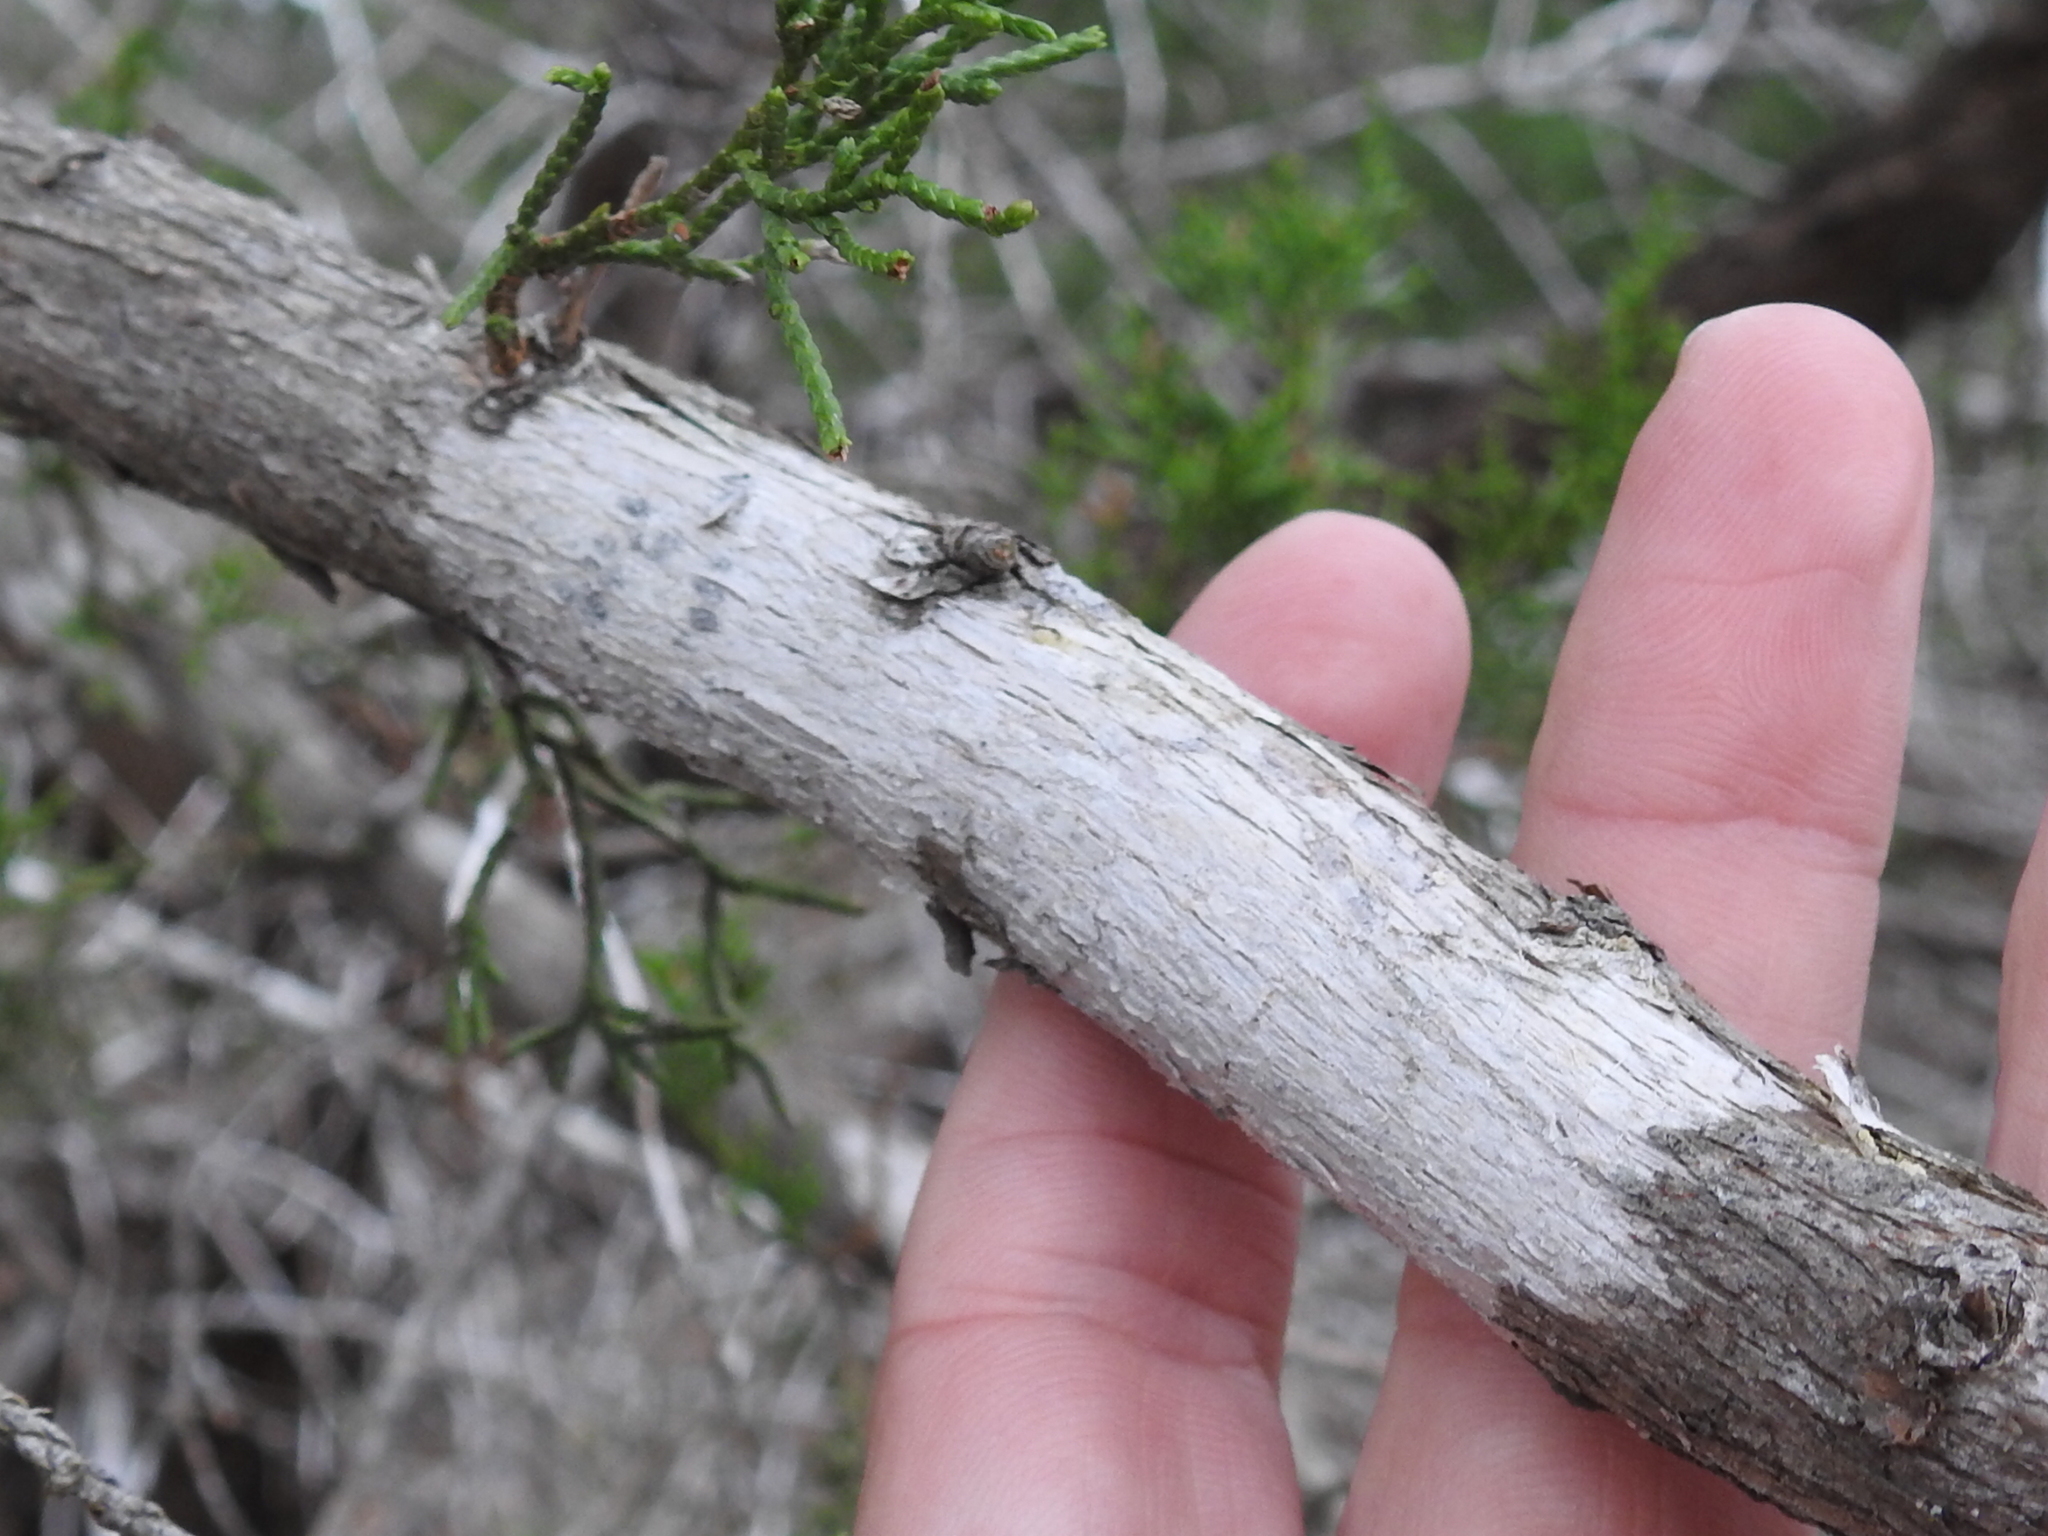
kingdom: Fungi
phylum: Ascomycota
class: Lecanoromycetes
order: Ostropales
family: Stictidaceae
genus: Robergea
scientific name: Robergea
